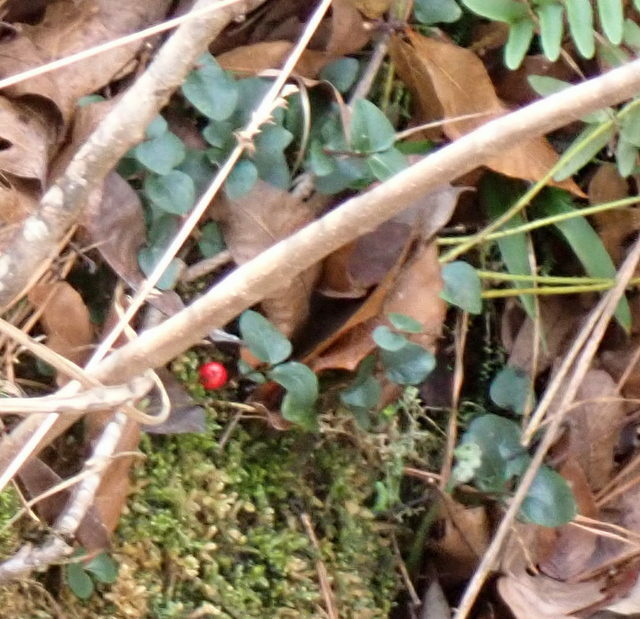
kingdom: Plantae
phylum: Tracheophyta
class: Magnoliopsida
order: Gentianales
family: Rubiaceae
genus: Mitchella
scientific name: Mitchella repens
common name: Partridge-berry
